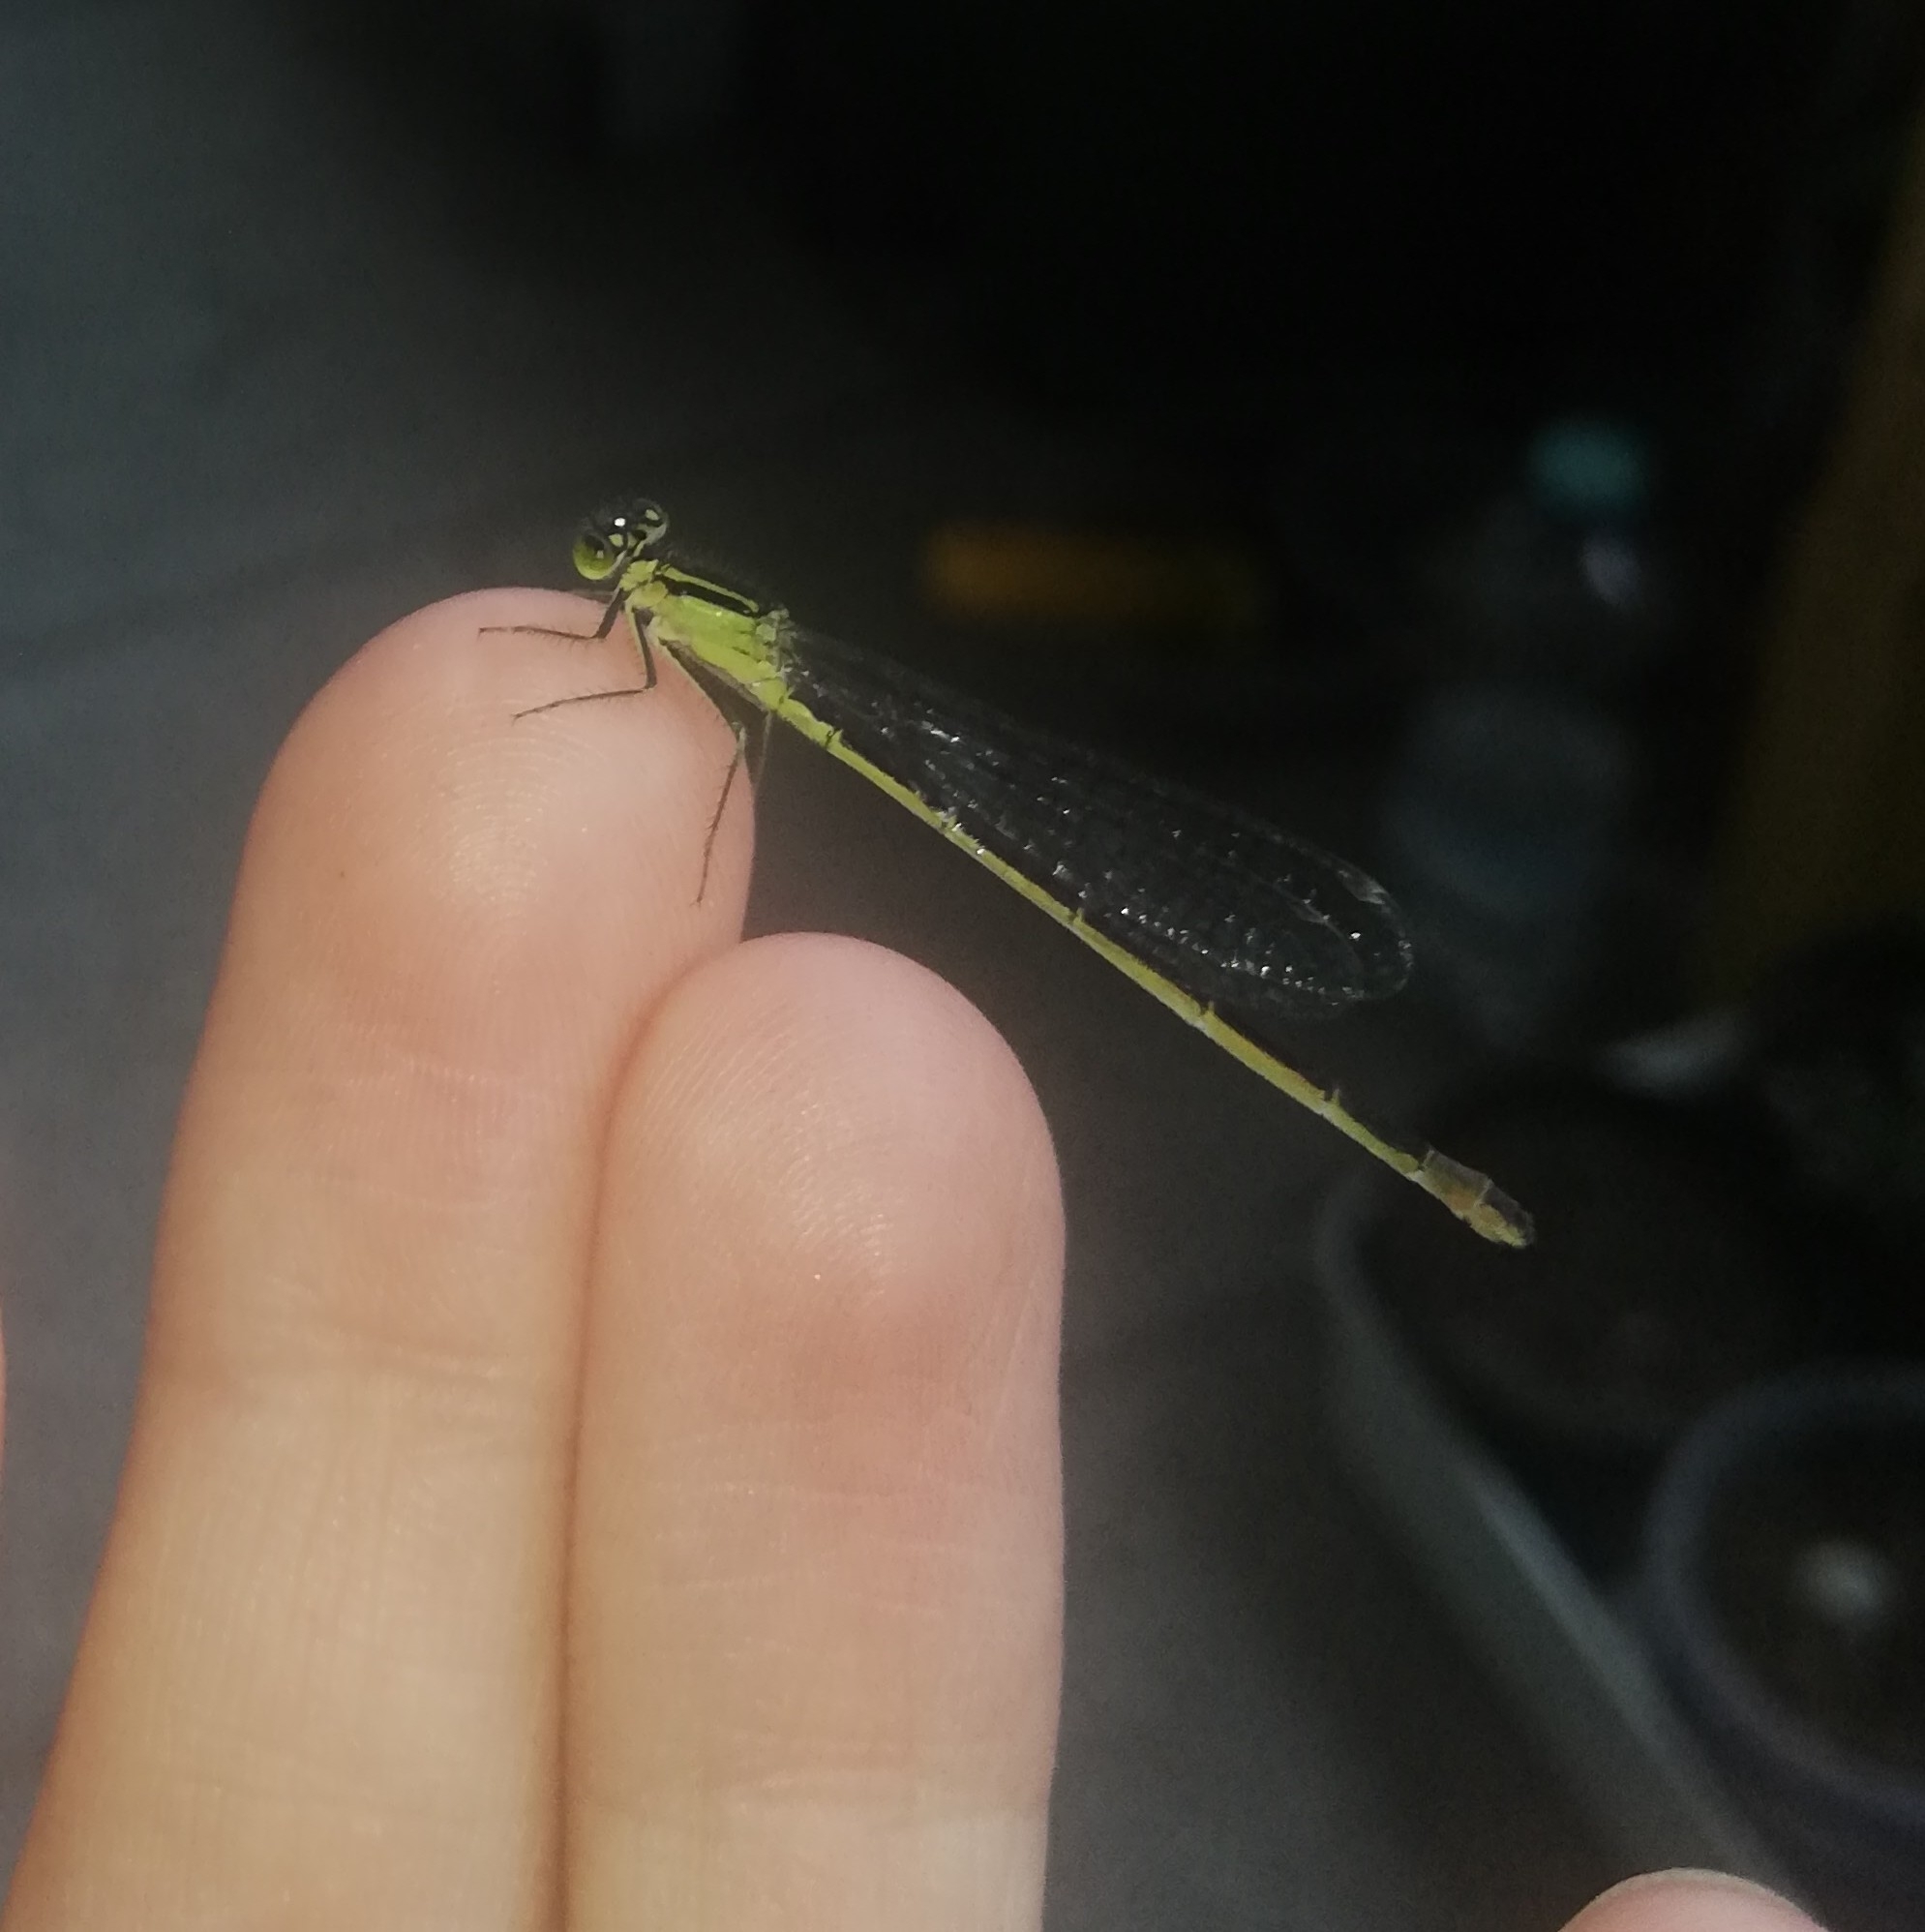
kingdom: Animalia
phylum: Arthropoda
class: Insecta
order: Odonata
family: Coenagrionidae
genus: Ischnura
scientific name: Ischnura elegans
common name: Blue-tailed damselfly
